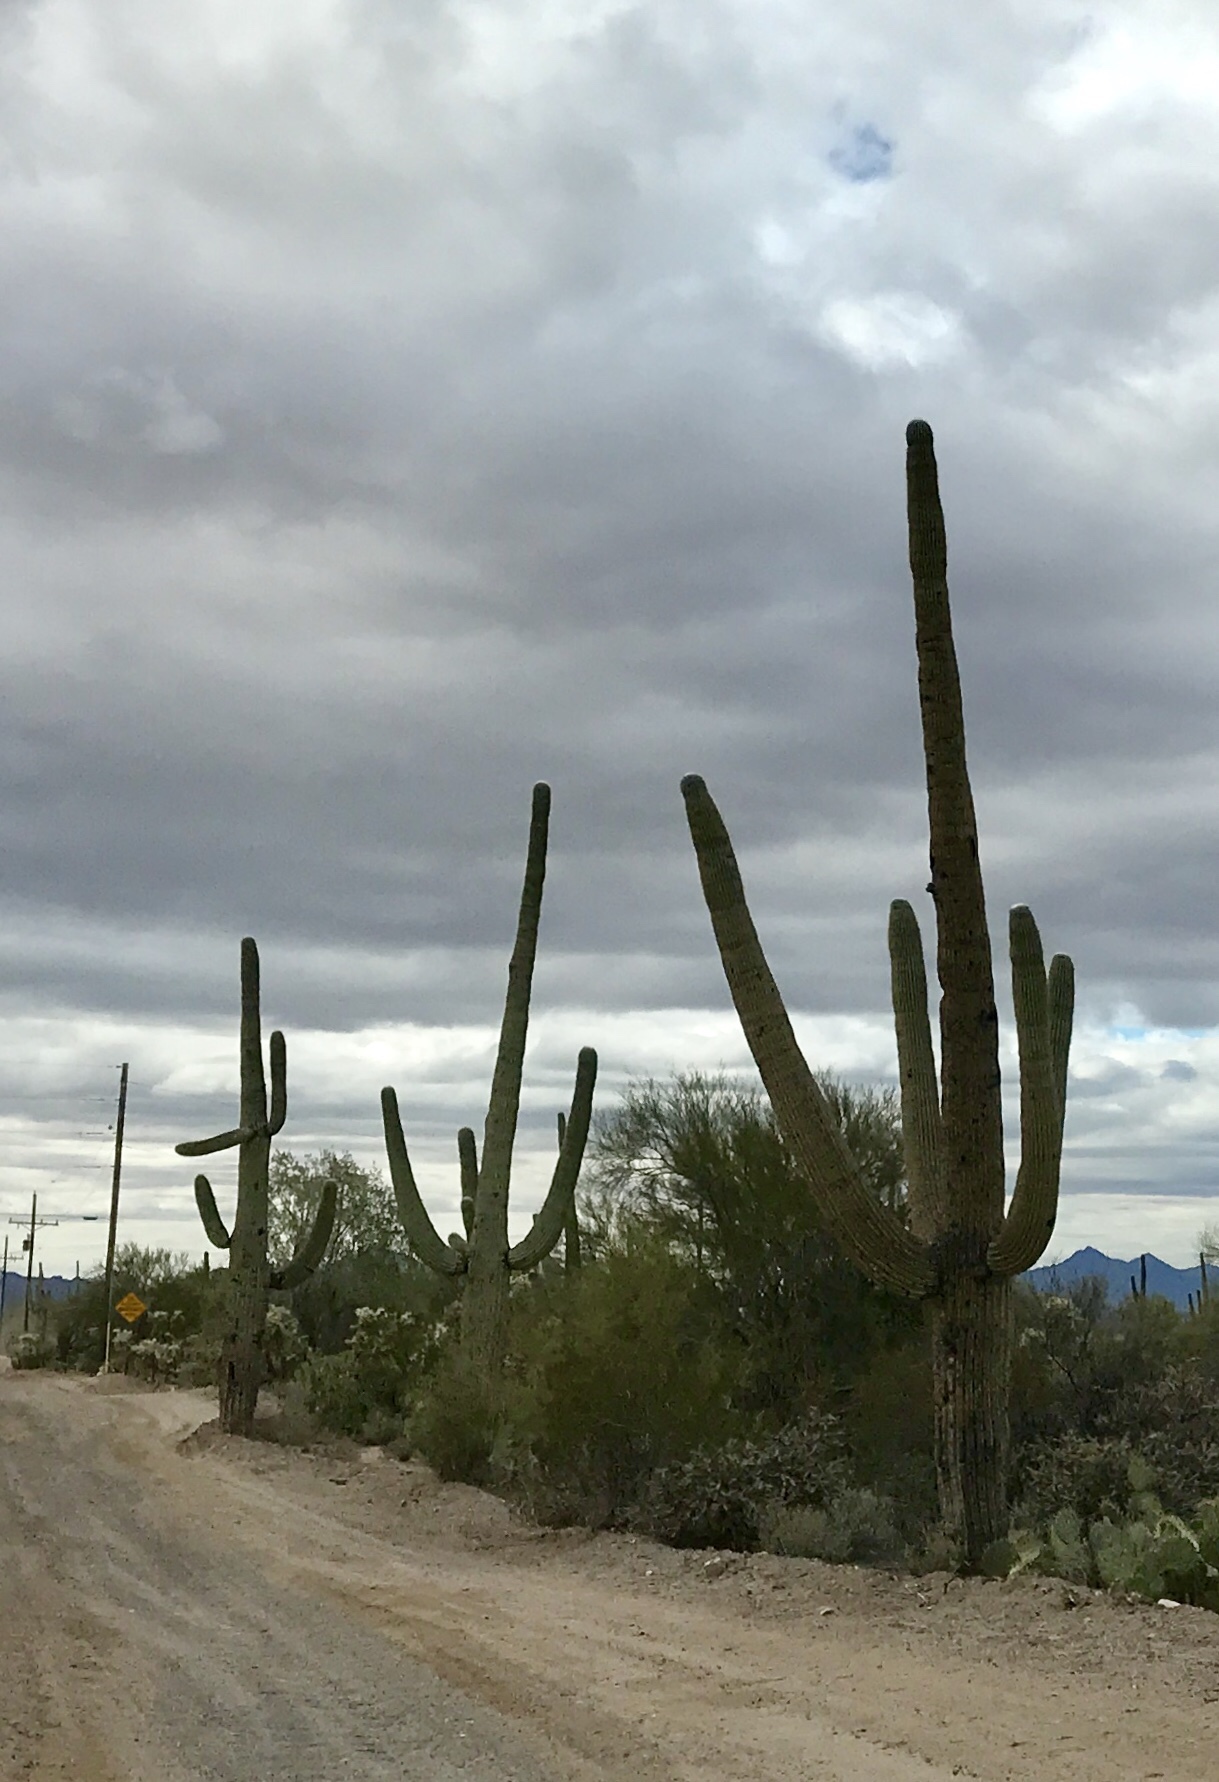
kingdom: Plantae
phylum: Tracheophyta
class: Magnoliopsida
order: Caryophyllales
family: Cactaceae
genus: Carnegiea
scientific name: Carnegiea gigantea
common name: Saguaro
